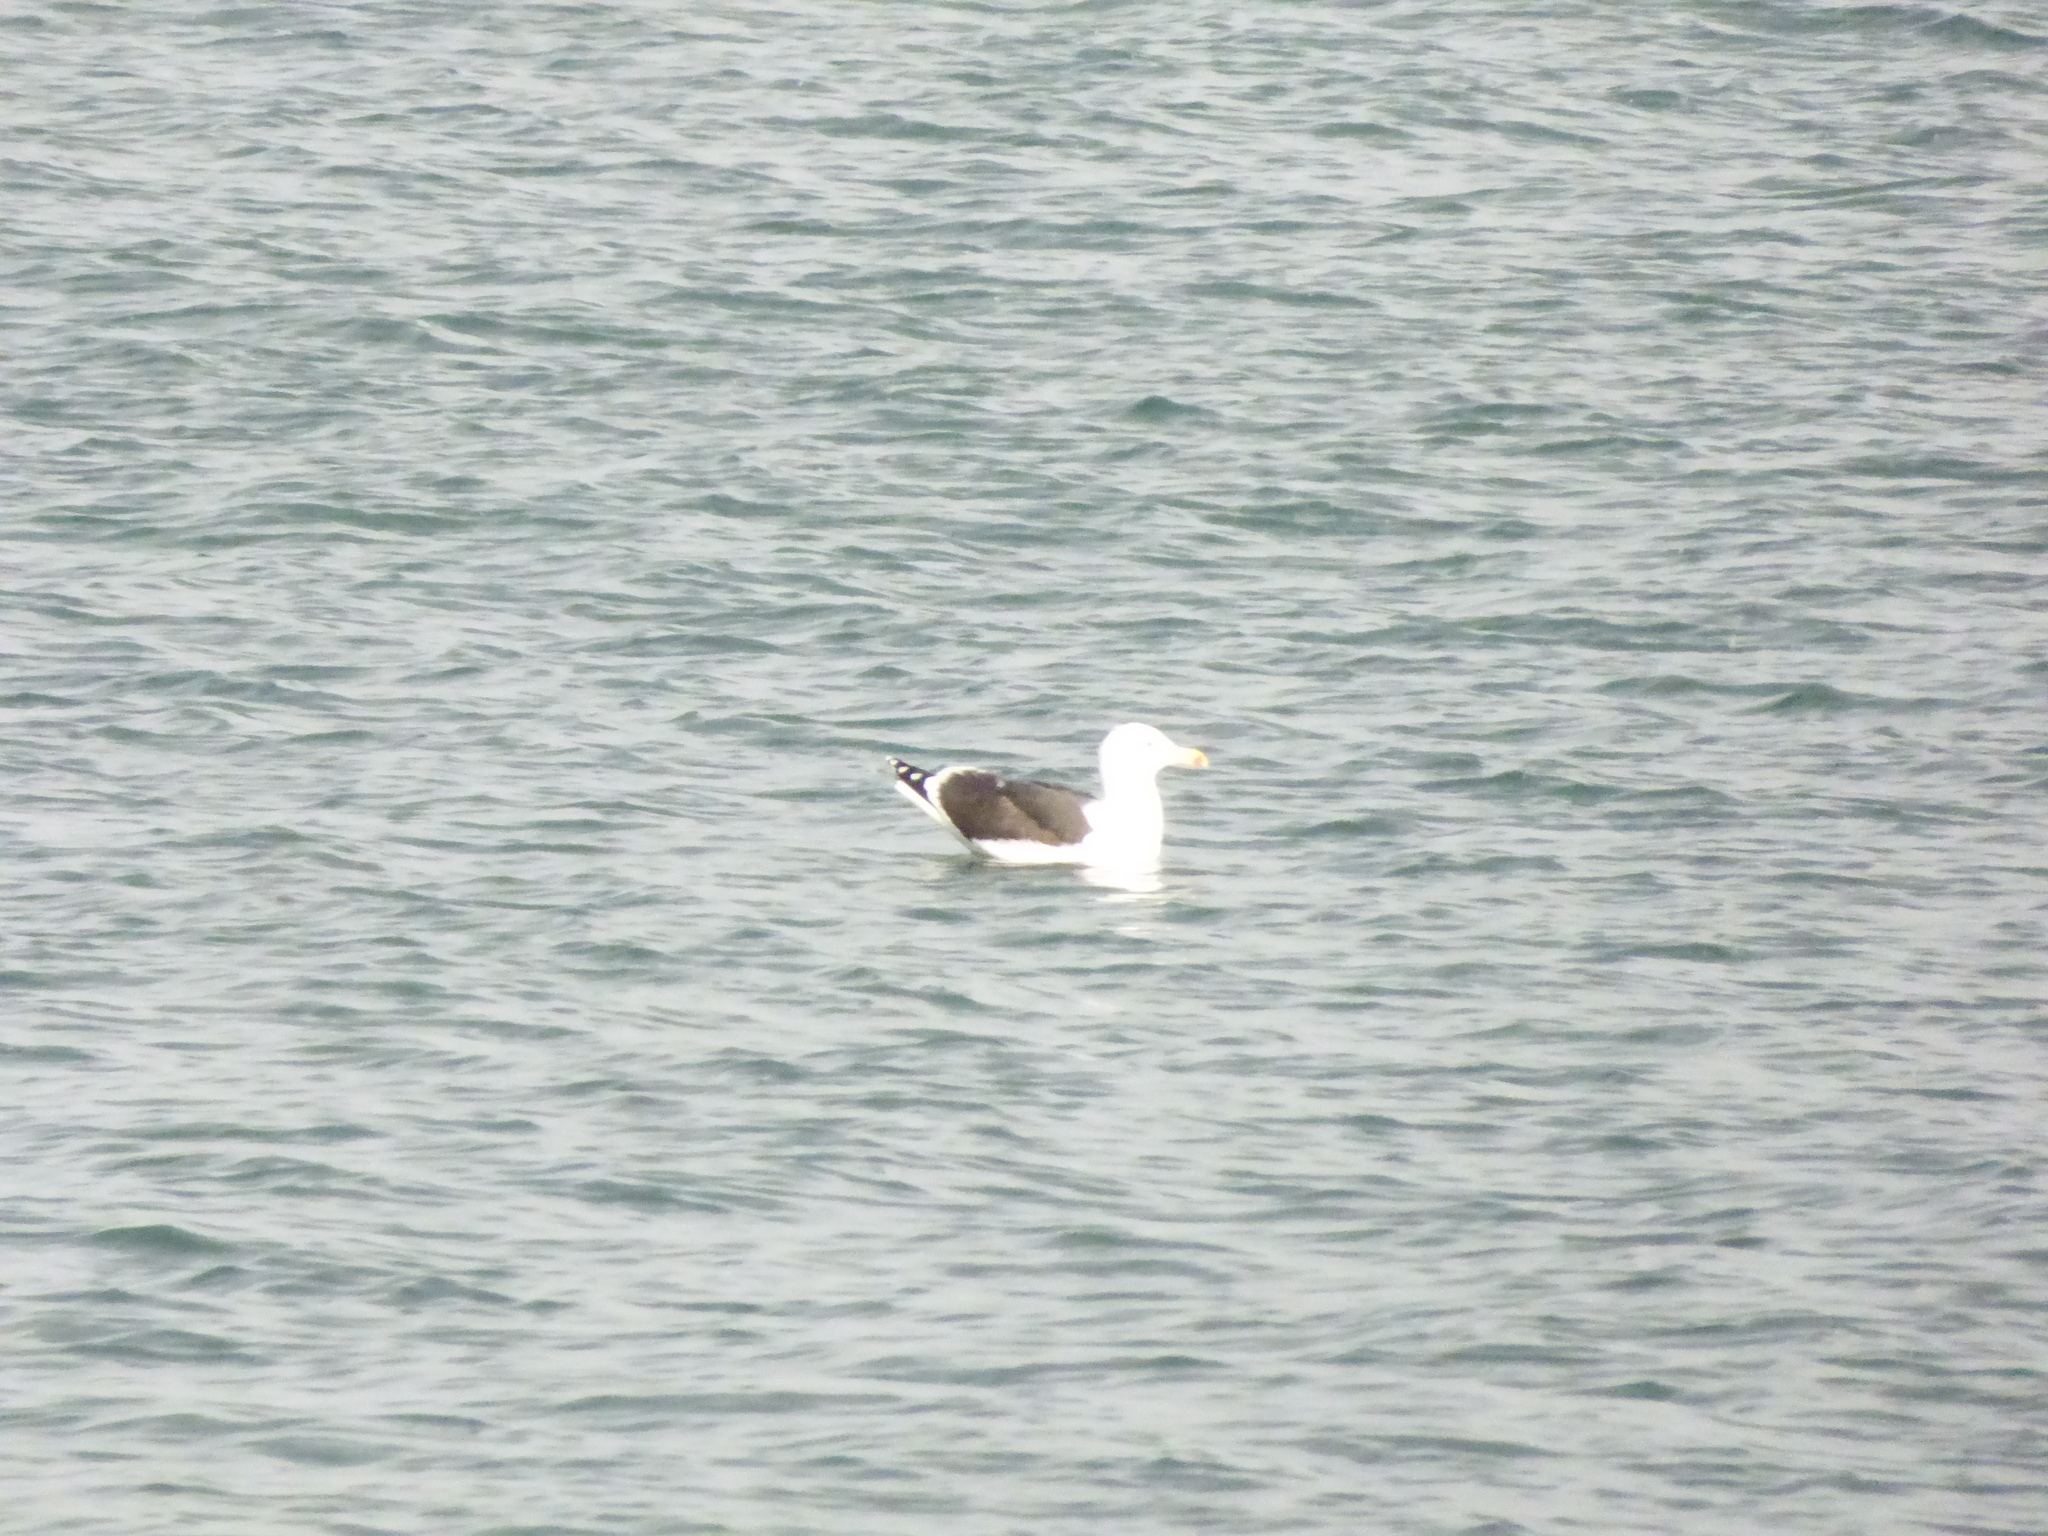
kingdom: Animalia
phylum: Chordata
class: Aves
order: Charadriiformes
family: Laridae
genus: Larus
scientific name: Larus marinus
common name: Great black-backed gull
